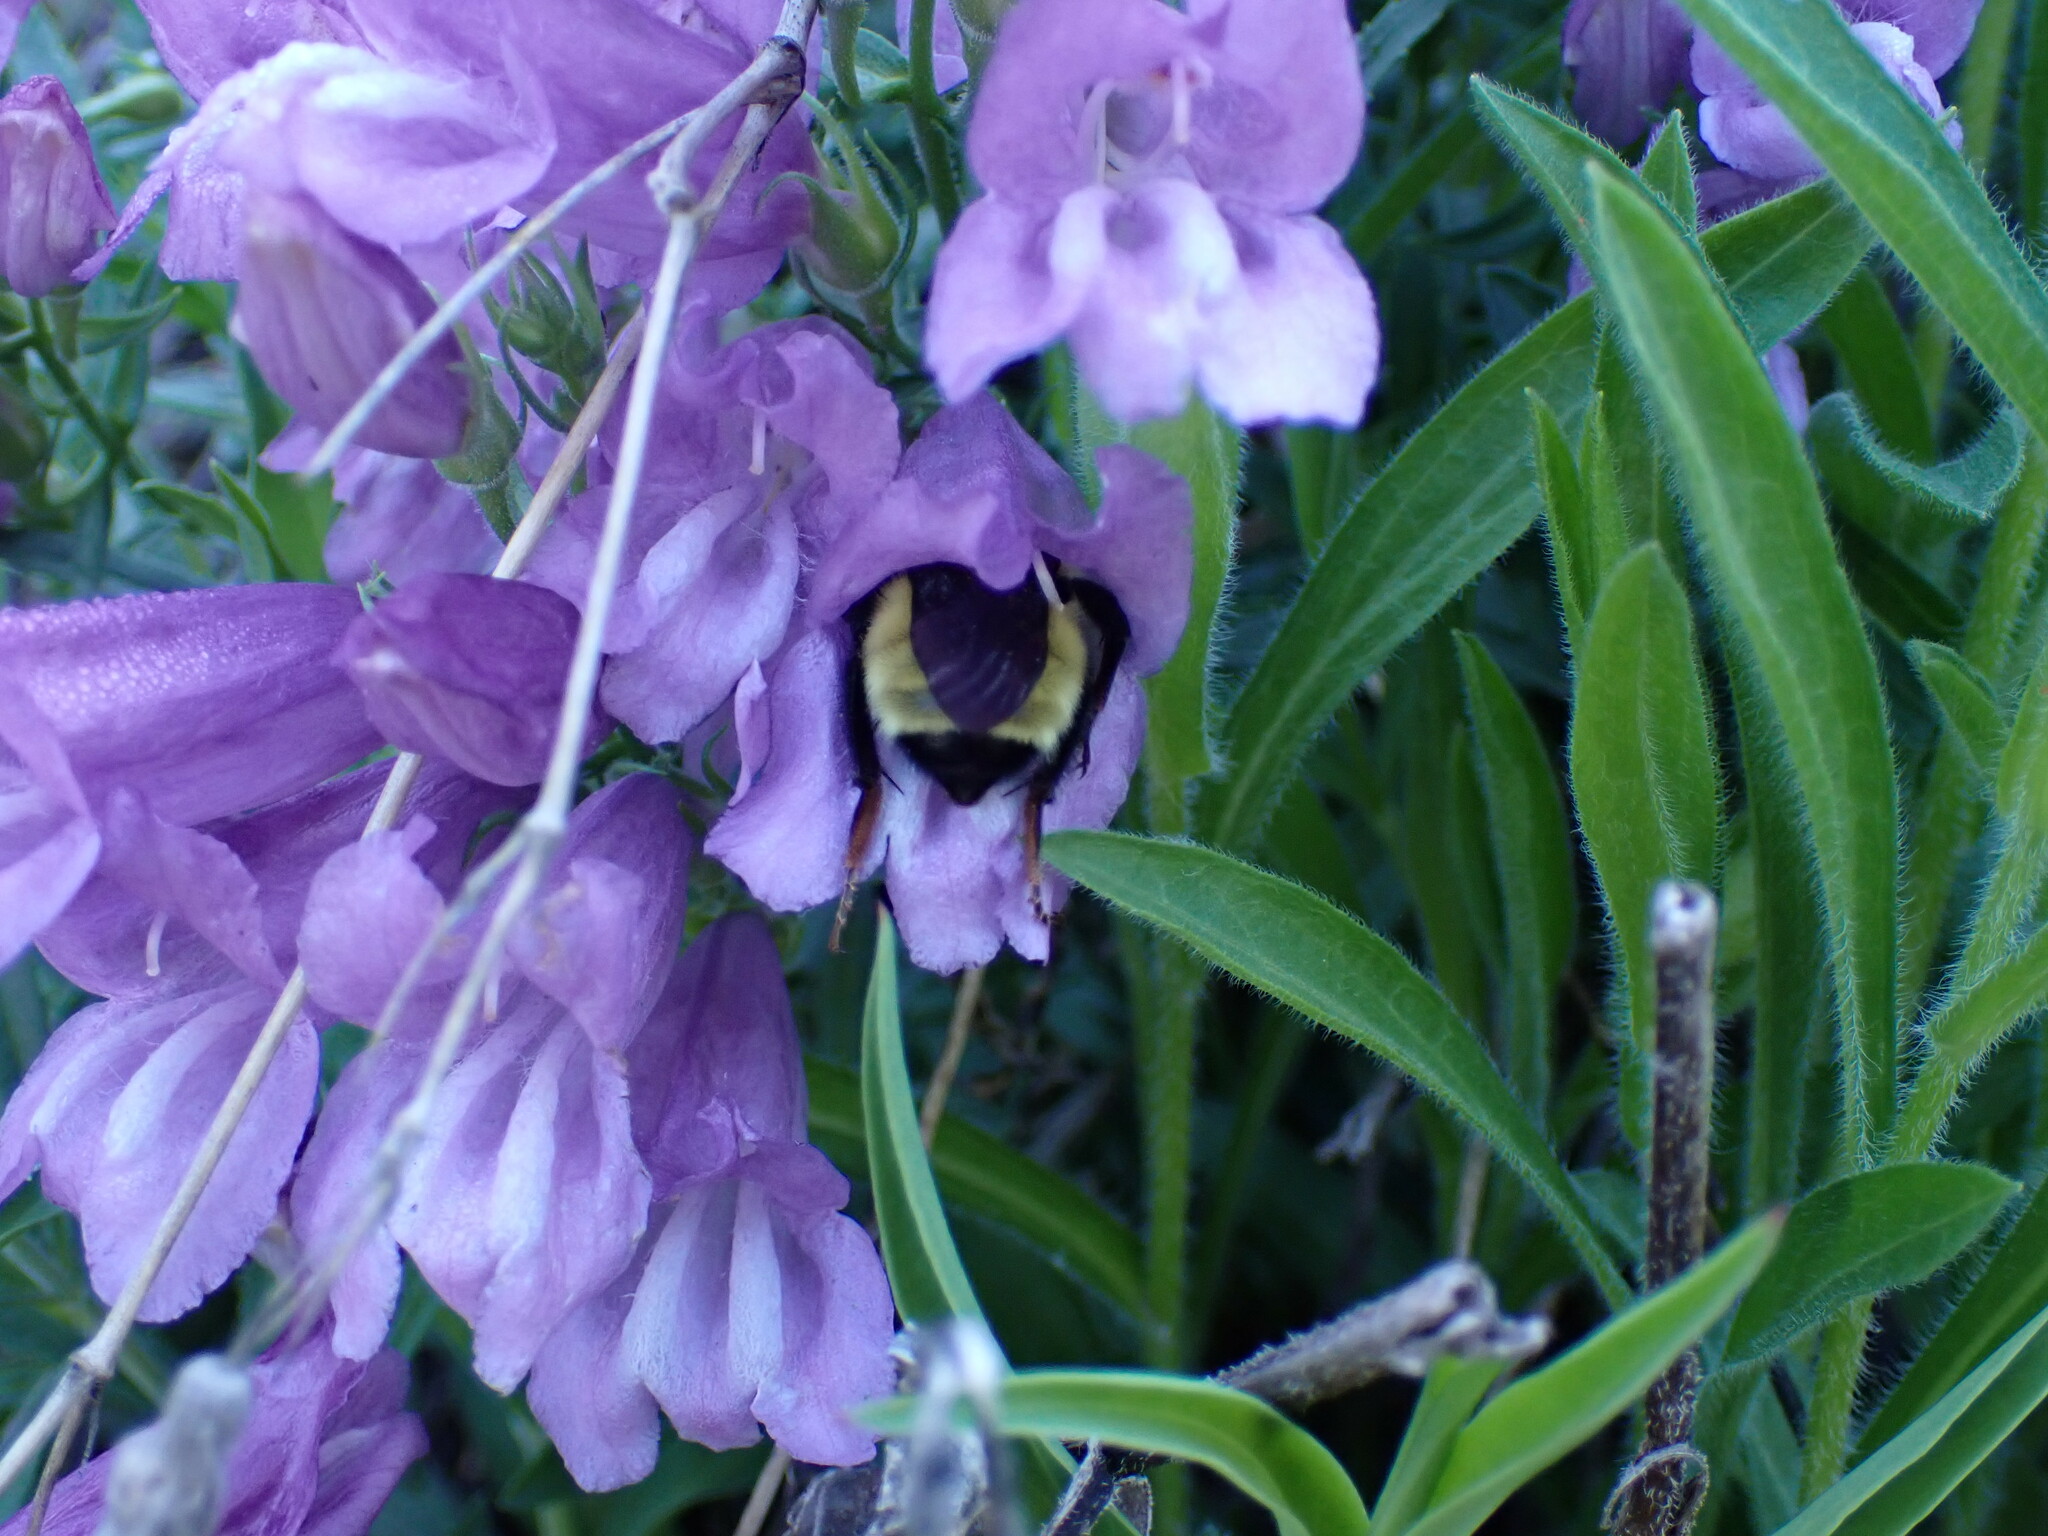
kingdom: Animalia
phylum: Arthropoda
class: Insecta
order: Hymenoptera
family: Apidae
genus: Bombus
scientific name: Bombus fervidus
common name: Yellow bumble bee
